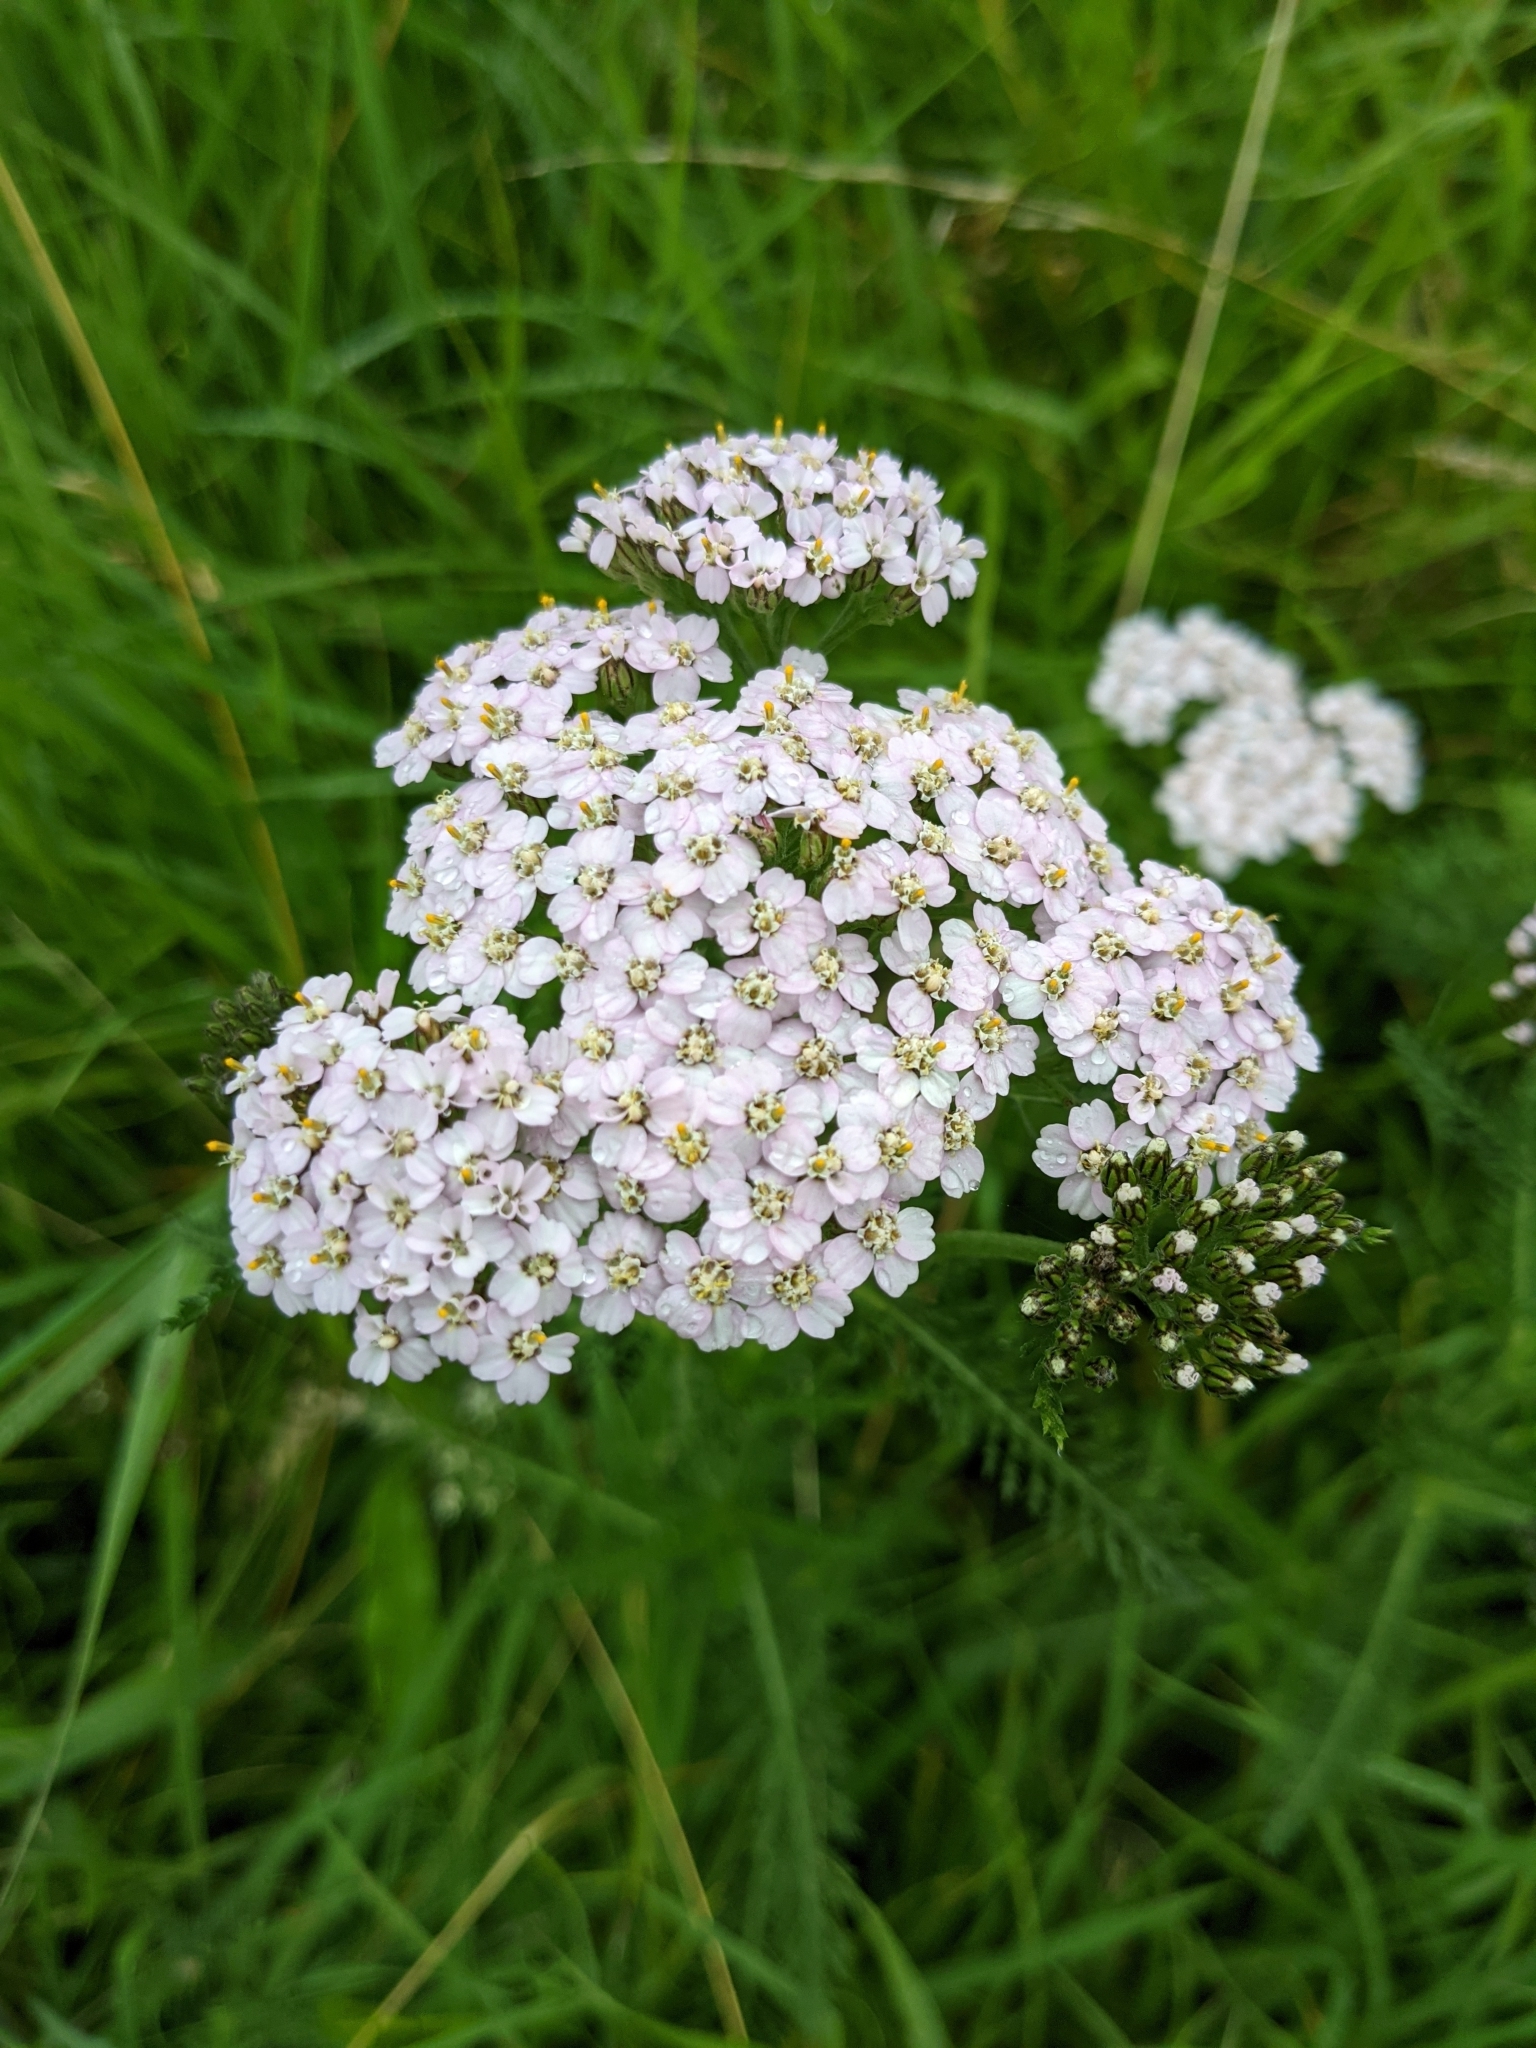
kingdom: Plantae
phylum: Tracheophyta
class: Magnoliopsida
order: Asterales
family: Asteraceae
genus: Achillea
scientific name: Achillea millefolium
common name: Yarrow
